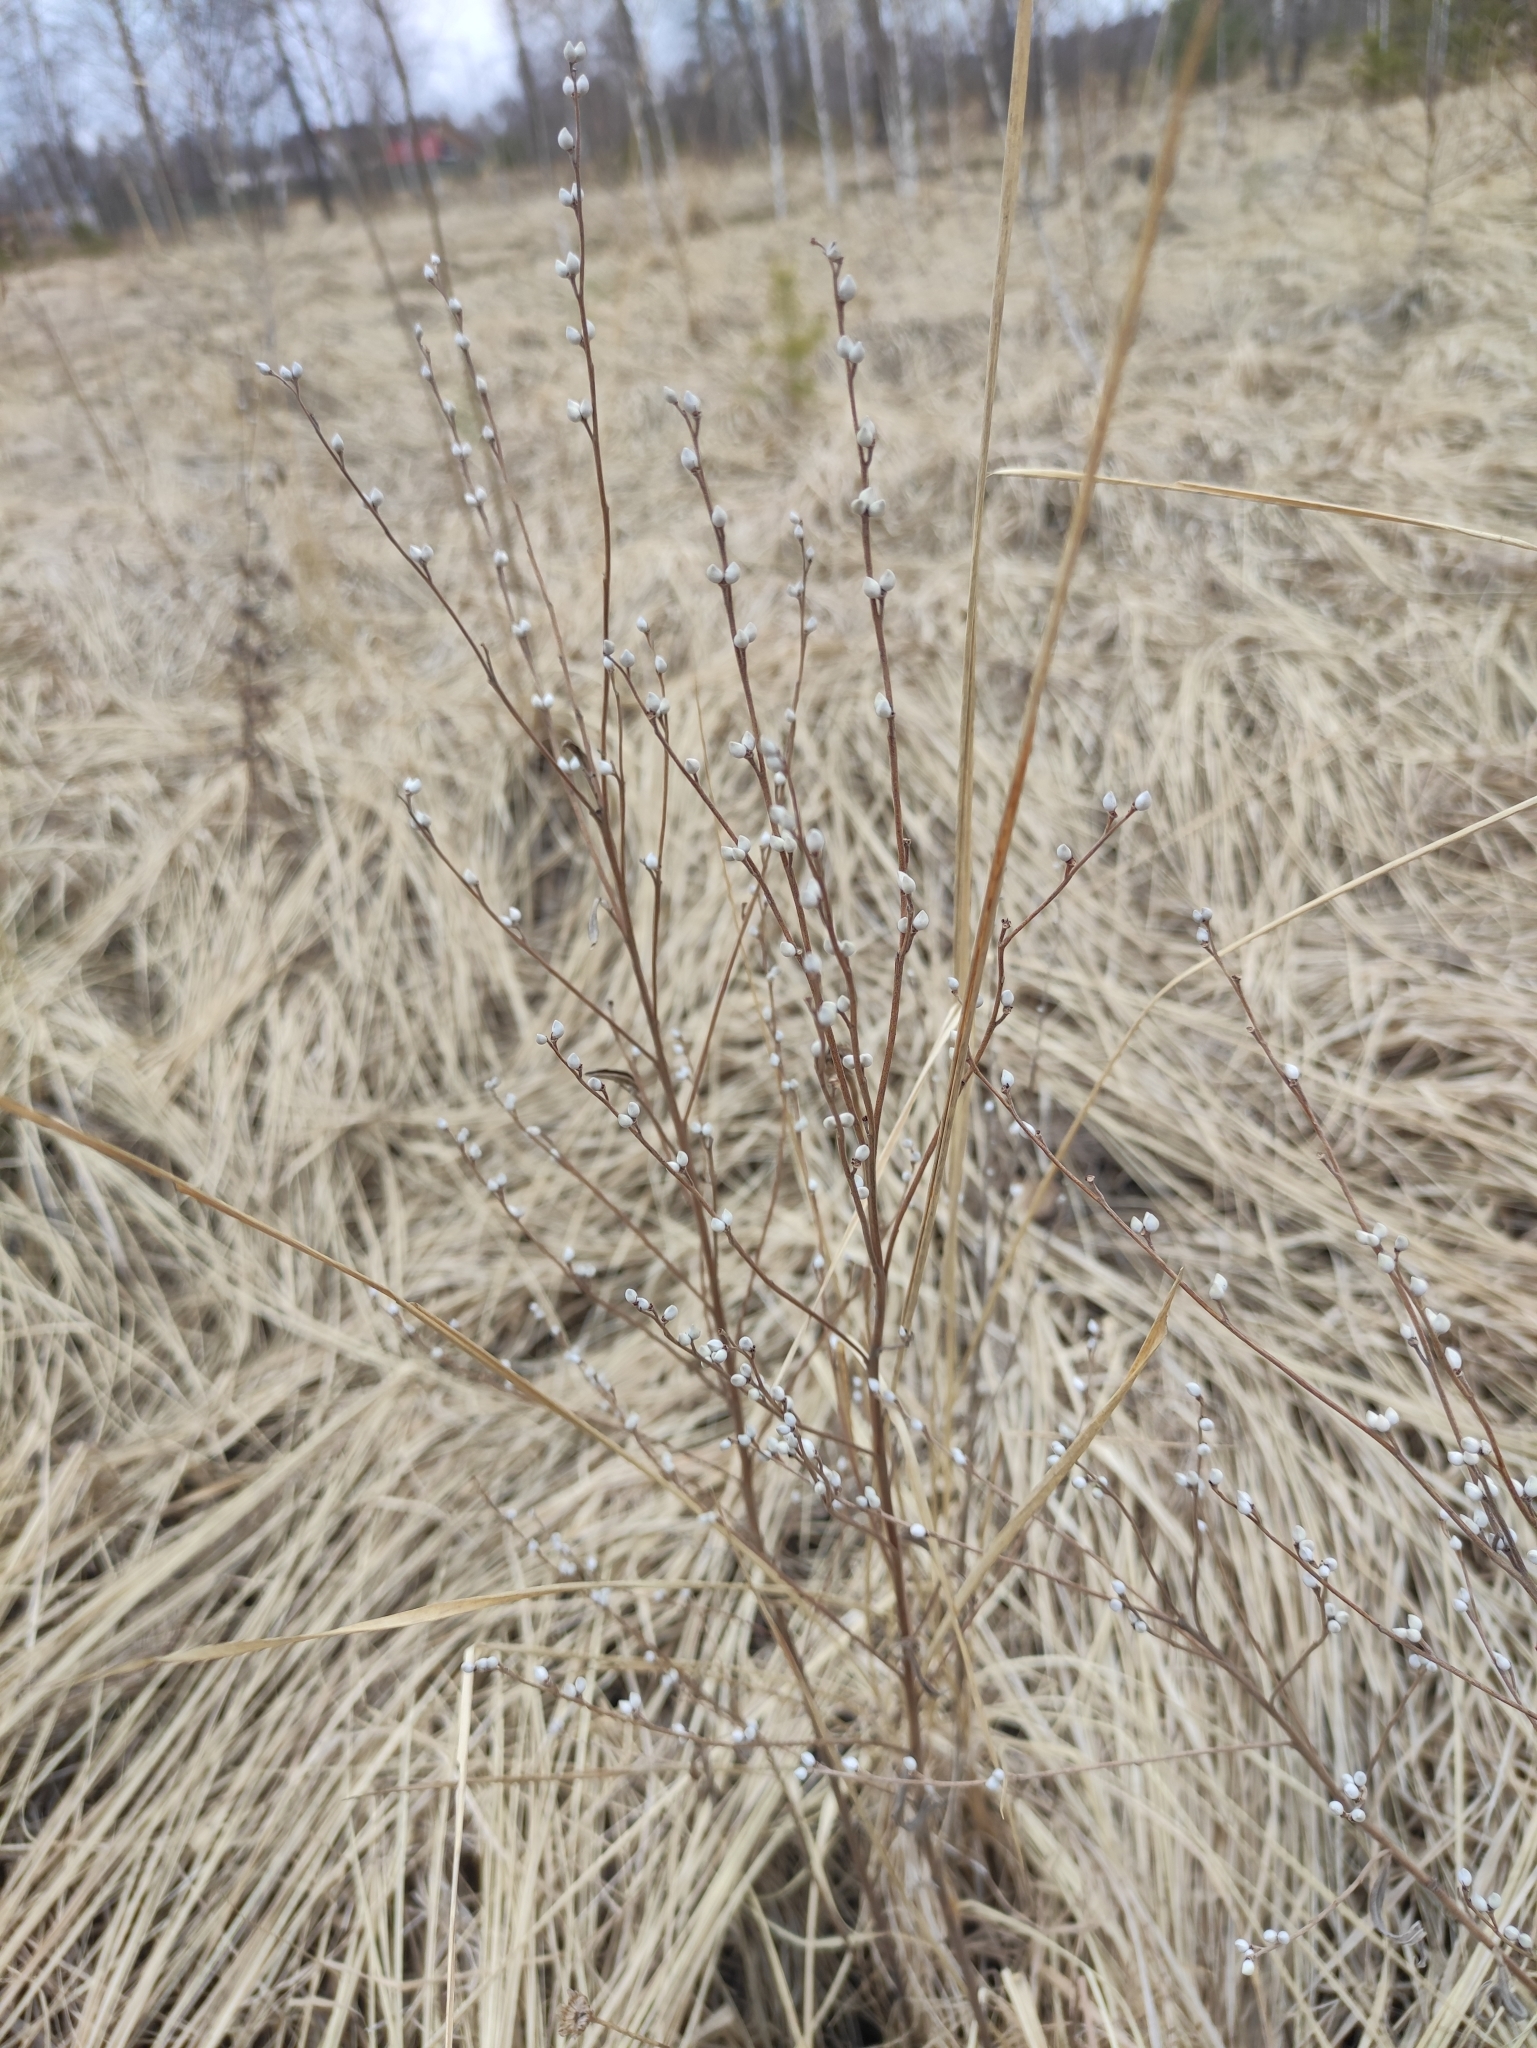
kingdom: Plantae
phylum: Tracheophyta
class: Magnoliopsida
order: Boraginales
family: Boraginaceae
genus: Lithospermum
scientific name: Lithospermum officinale
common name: Common gromwell
